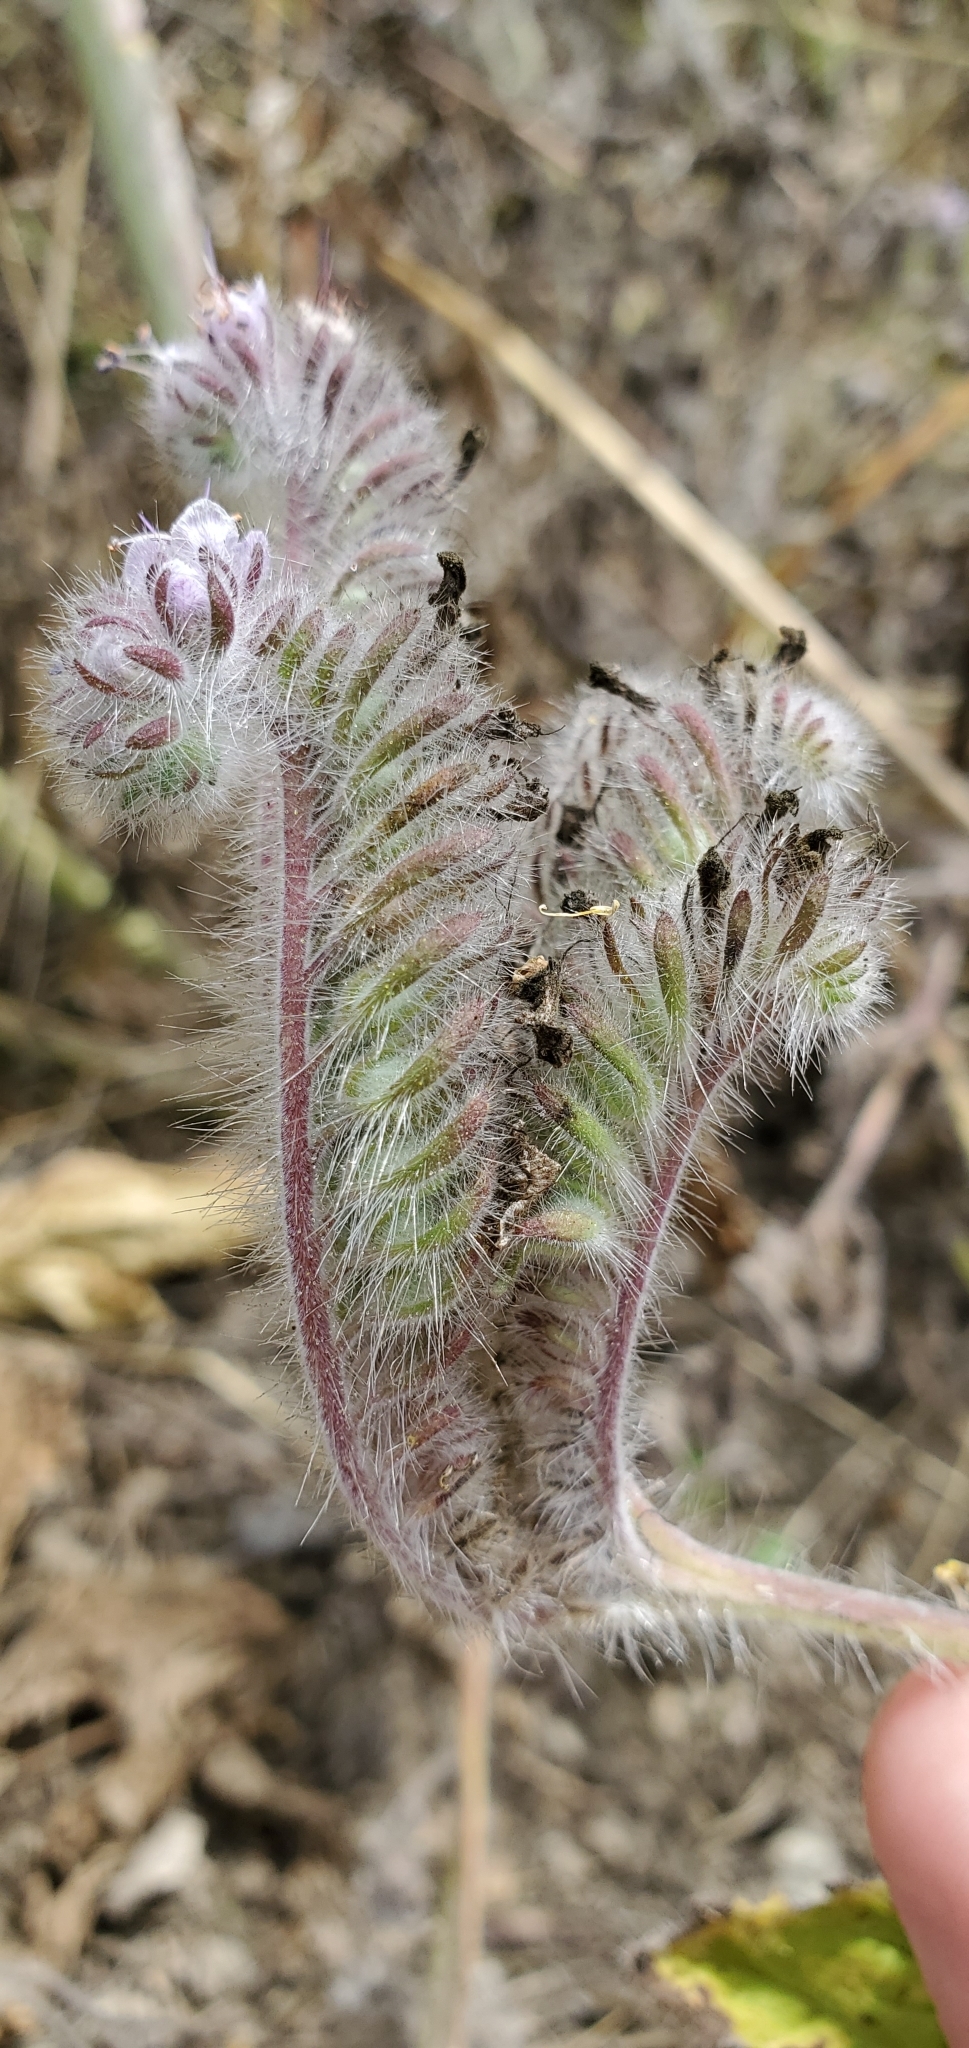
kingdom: Plantae
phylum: Tracheophyta
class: Magnoliopsida
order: Boraginales
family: Hydrophyllaceae
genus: Phacelia
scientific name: Phacelia hubbyi
